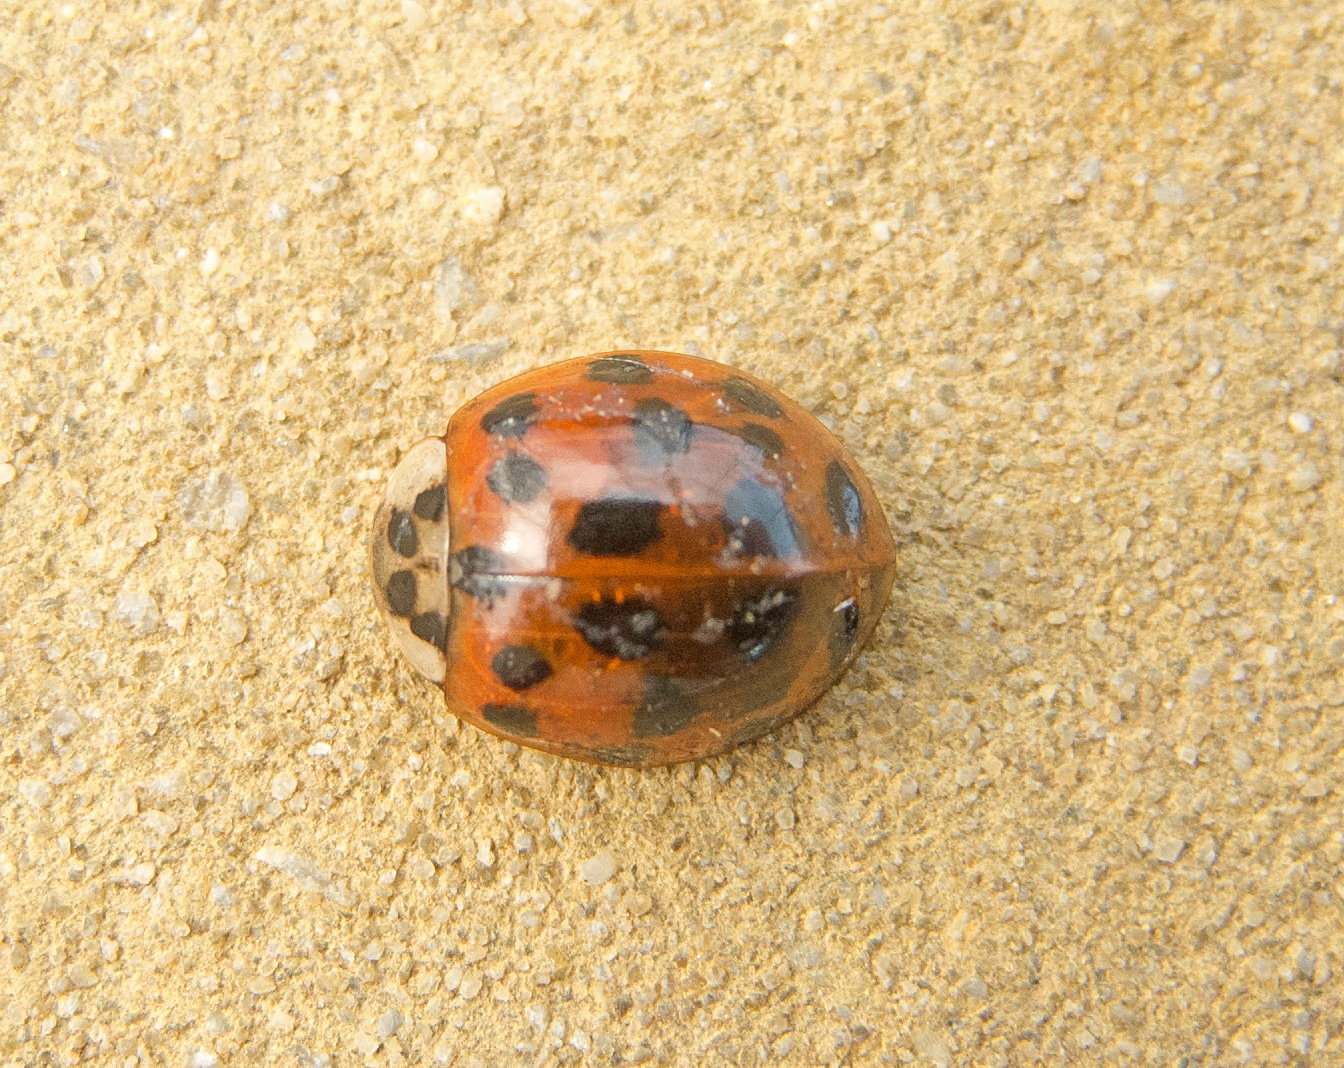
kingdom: Animalia
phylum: Arthropoda
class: Insecta
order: Coleoptera
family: Coccinellidae
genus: Harmonia
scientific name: Harmonia axyridis
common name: Harlequin ladybird
